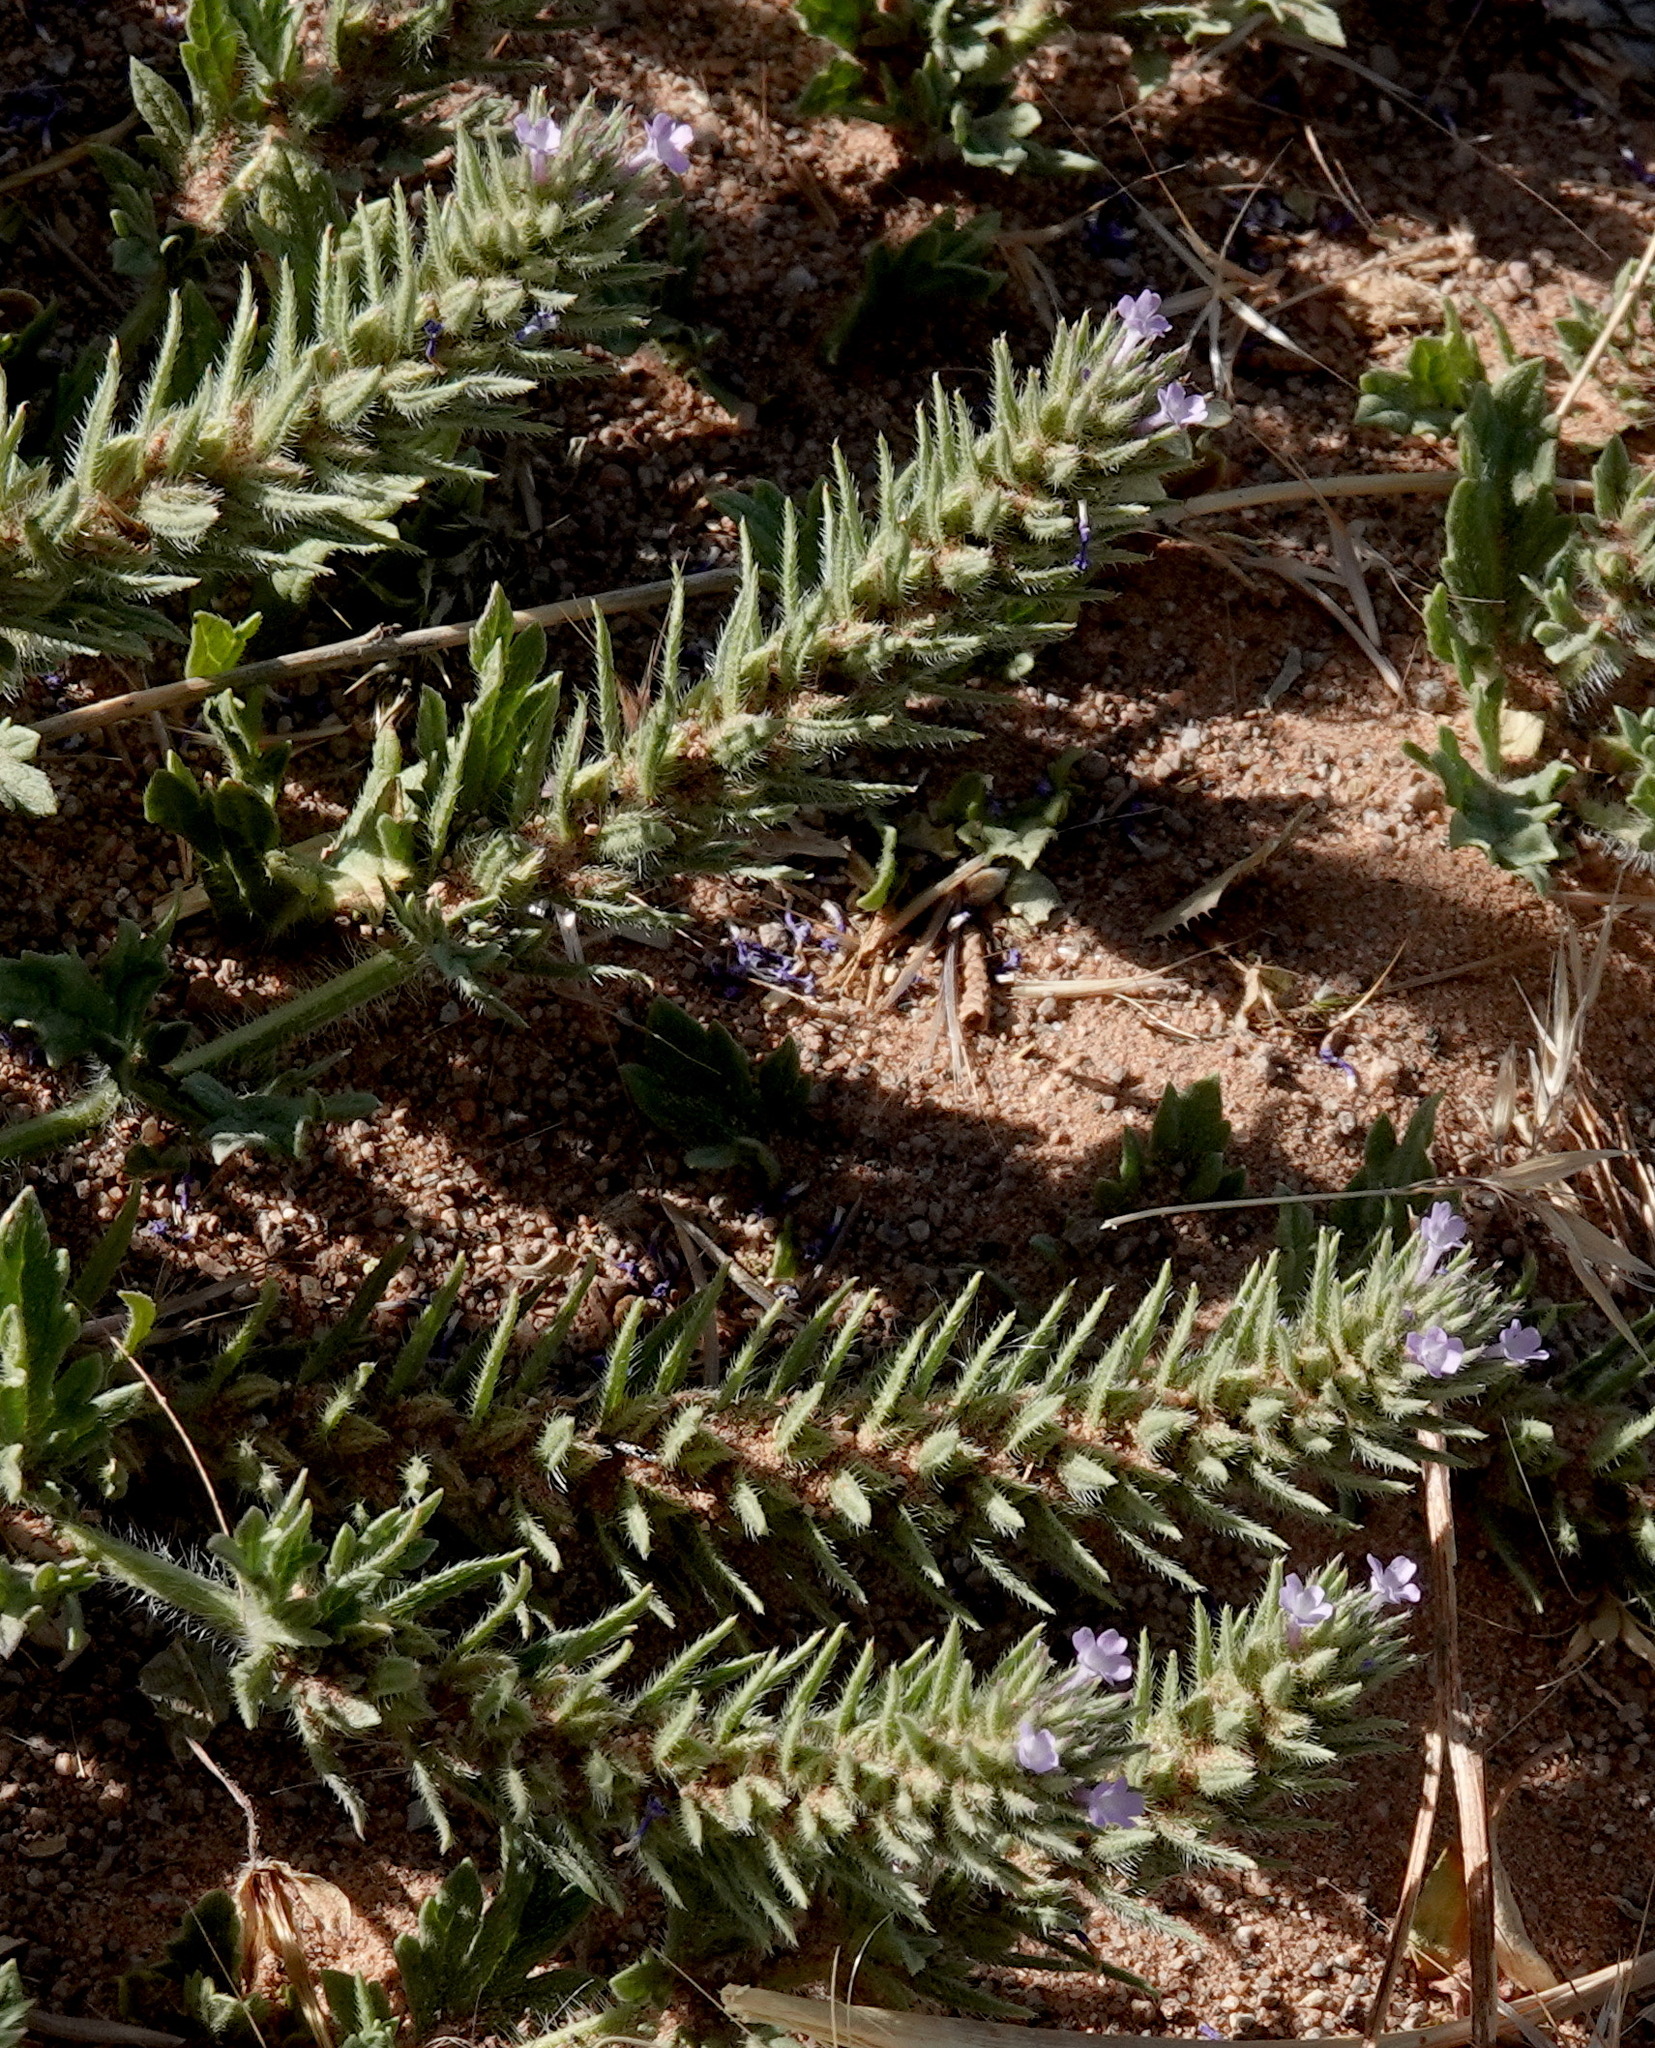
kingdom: Plantae
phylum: Tracheophyta
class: Magnoliopsida
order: Lamiales
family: Verbenaceae
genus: Verbena
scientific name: Verbena bracteata
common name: Bracted vervain
